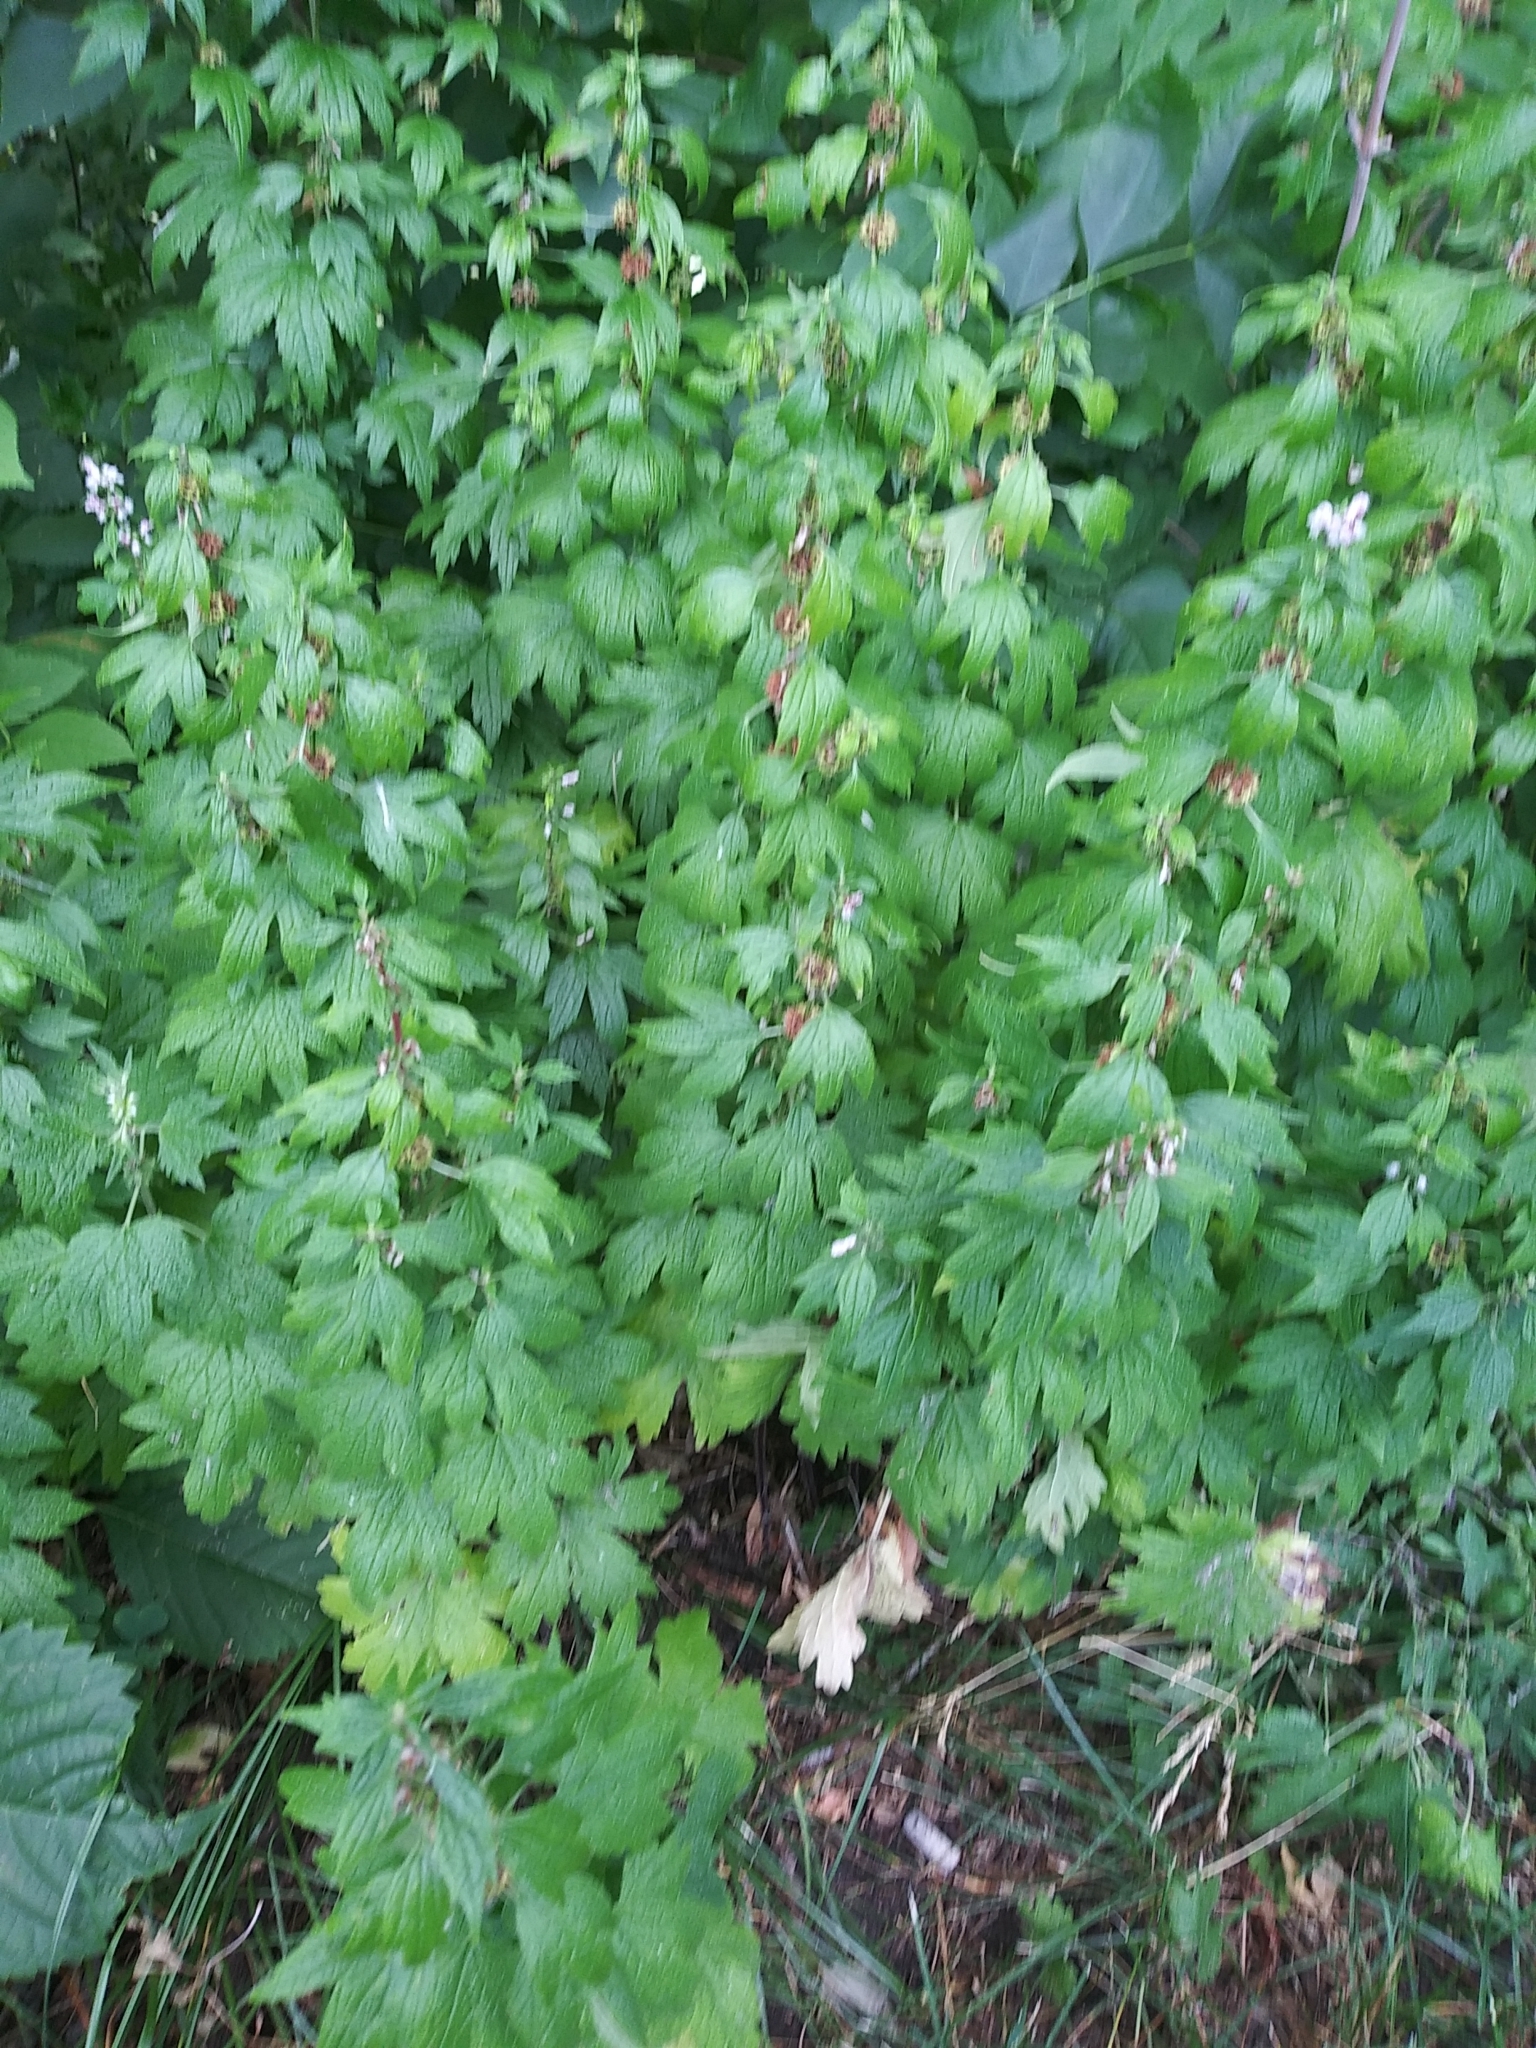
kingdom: Plantae
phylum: Tracheophyta
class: Magnoliopsida
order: Lamiales
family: Lamiaceae
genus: Leonurus
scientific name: Leonurus cardiaca
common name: Motherwort
